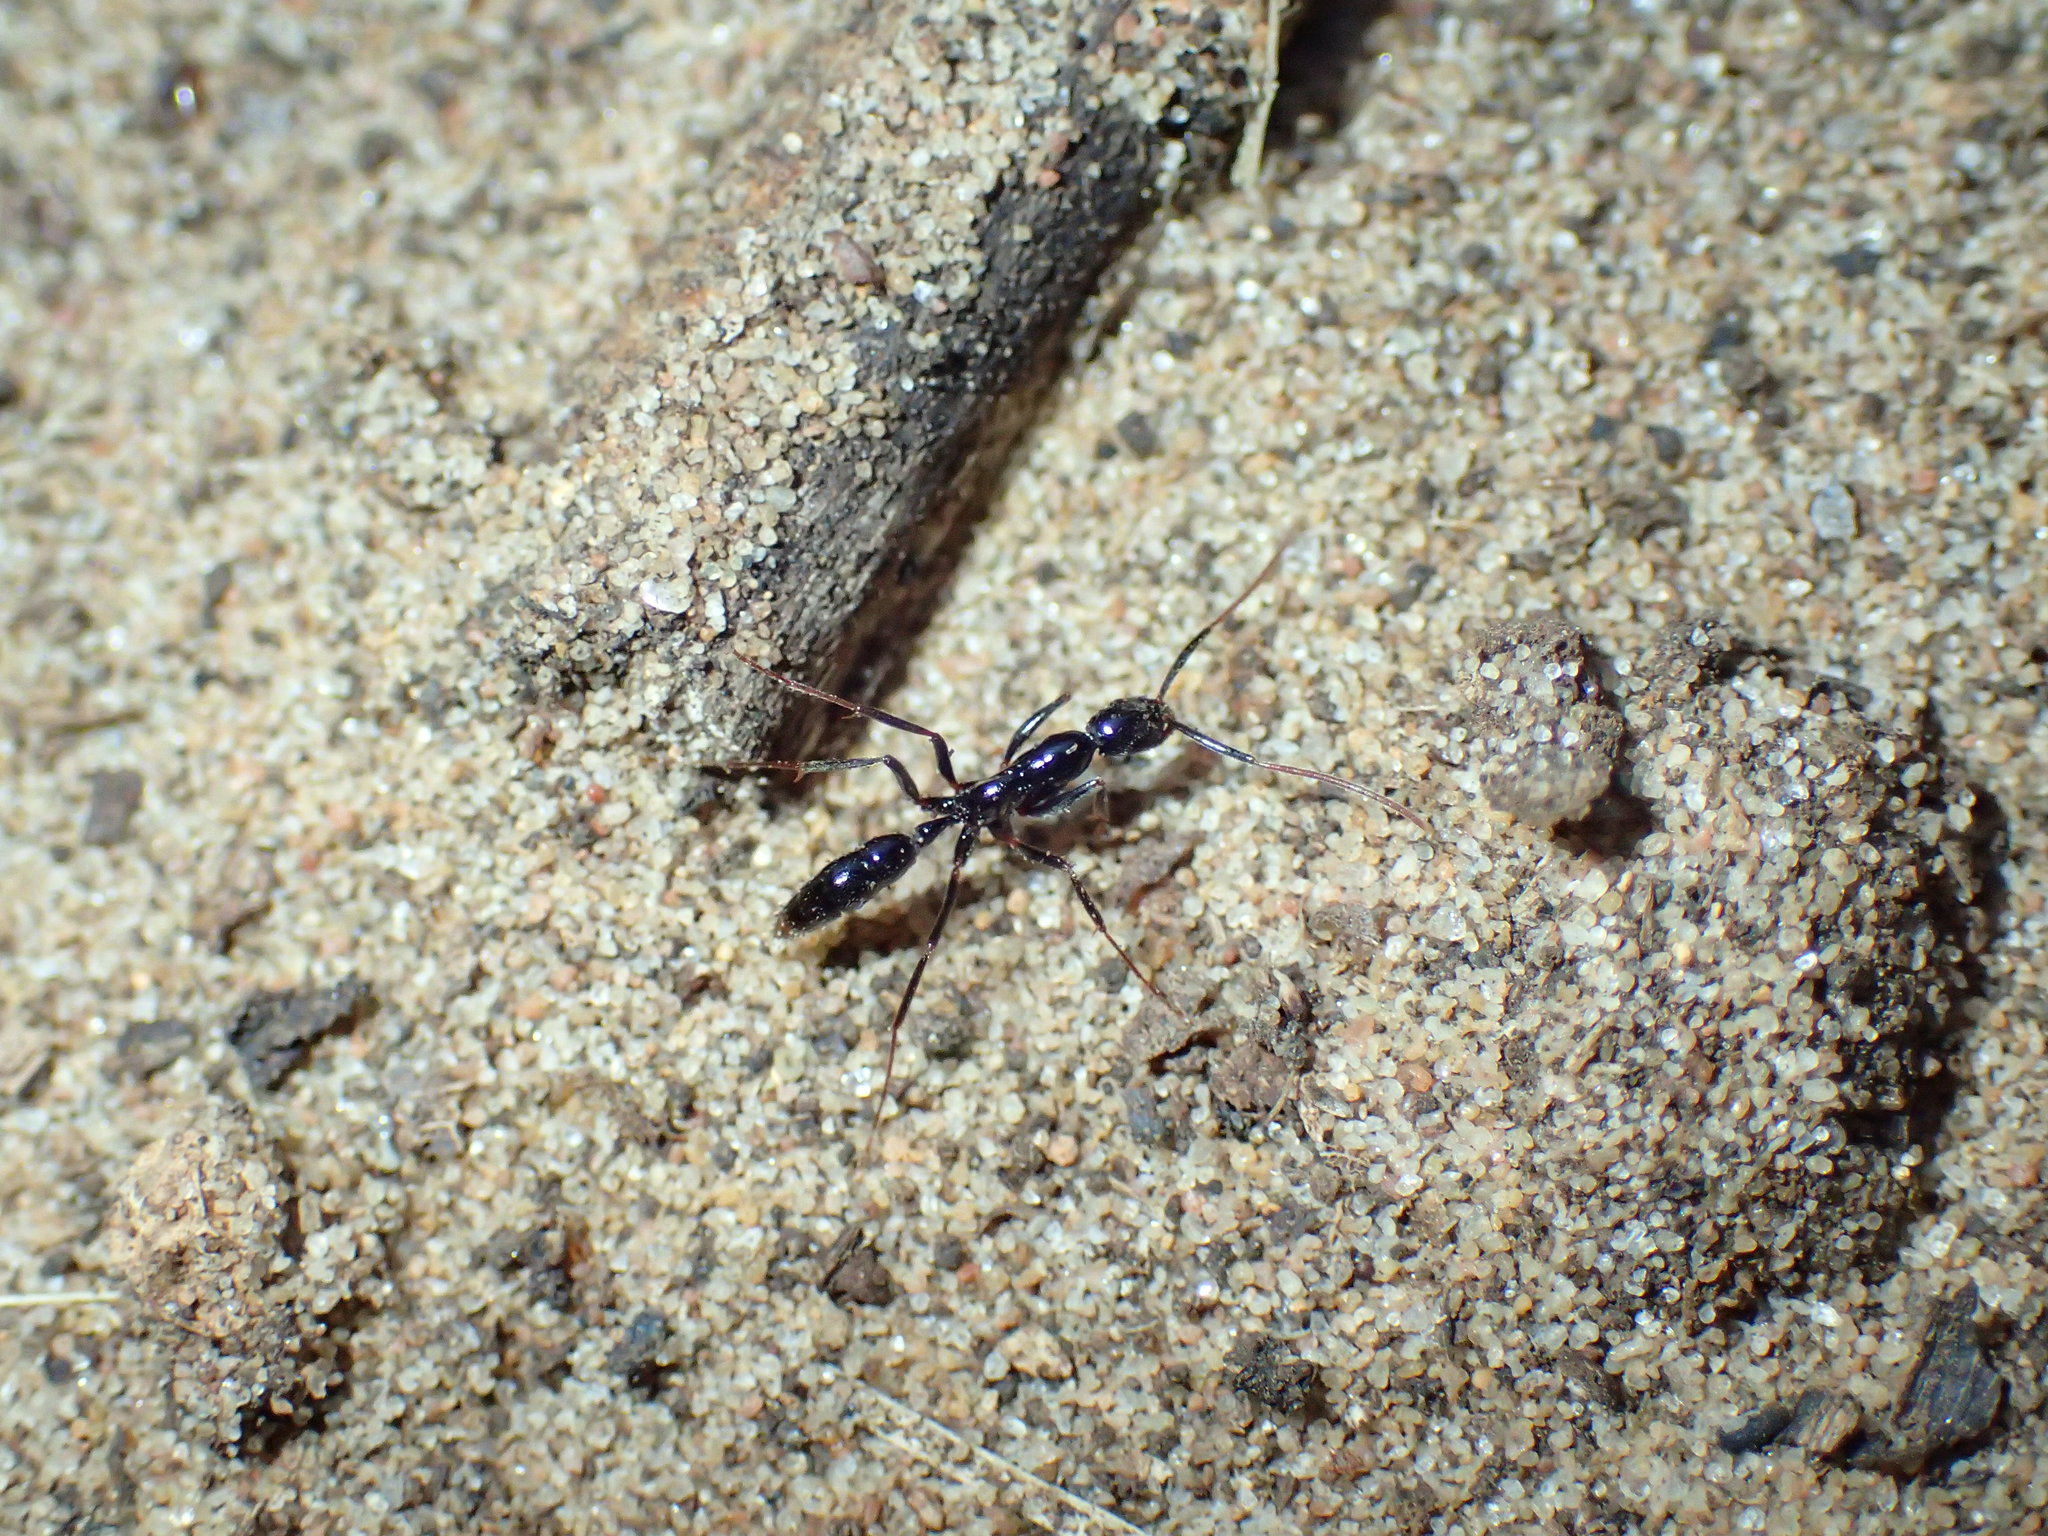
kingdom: Animalia
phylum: Arthropoda
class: Insecta
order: Hymenoptera
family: Formicidae
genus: Leptogenys
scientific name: Leptogenys attenuata
